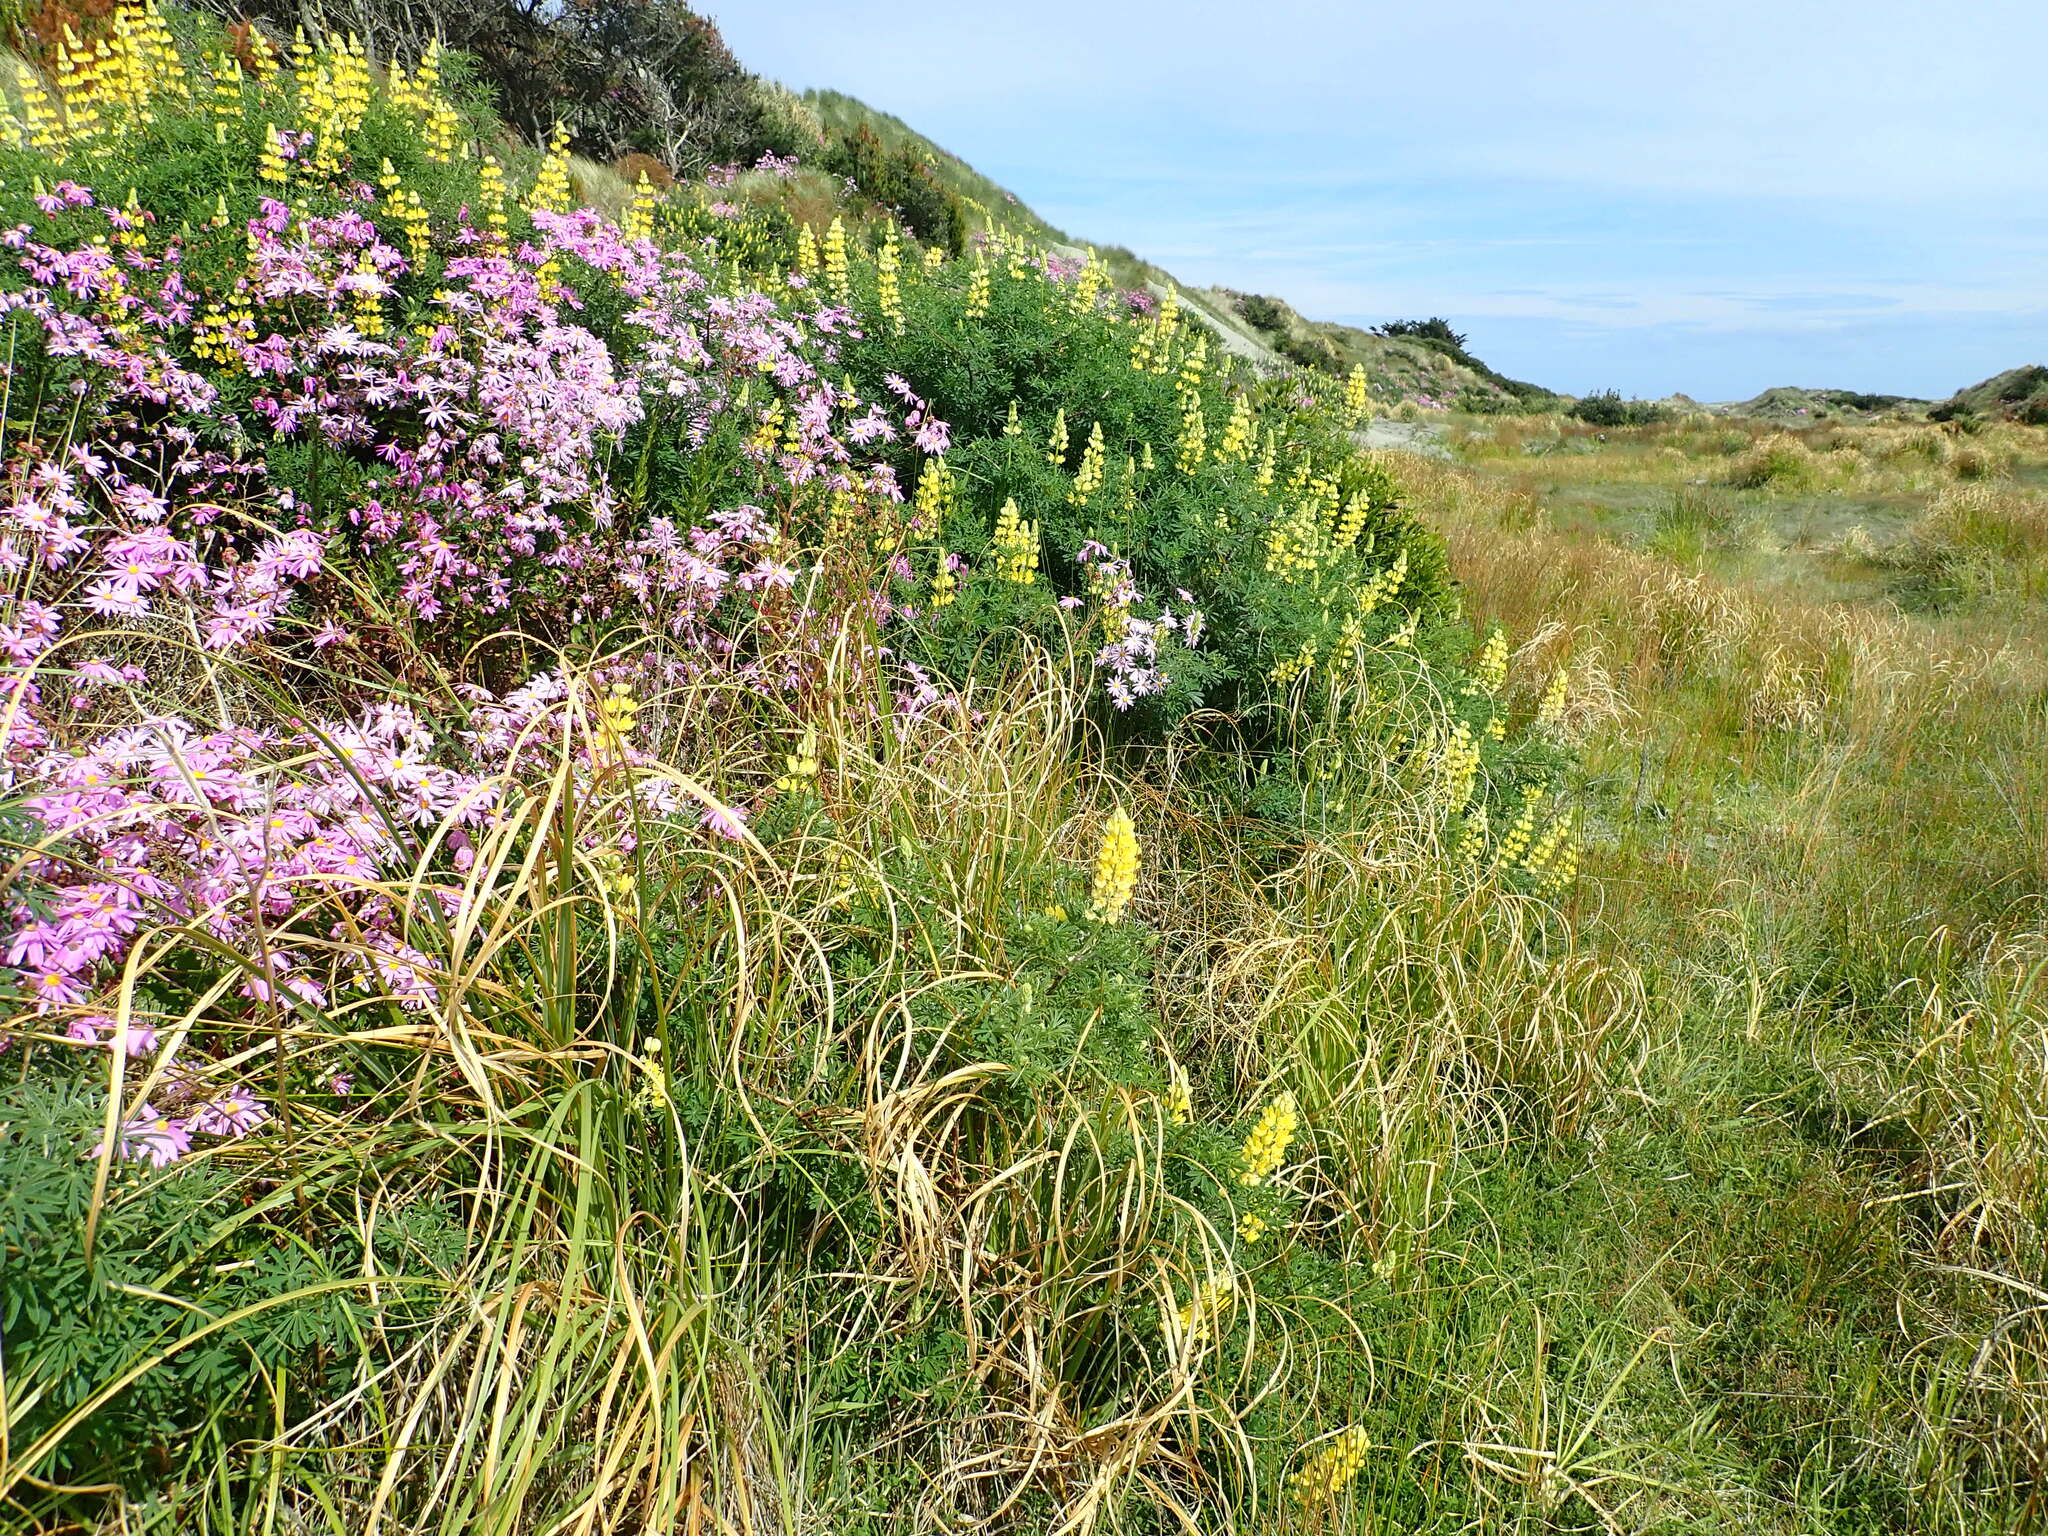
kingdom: Plantae
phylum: Tracheophyta
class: Magnoliopsida
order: Fabales
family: Fabaceae
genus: Lupinus
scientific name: Lupinus arboreus
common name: Yellow bush lupine
